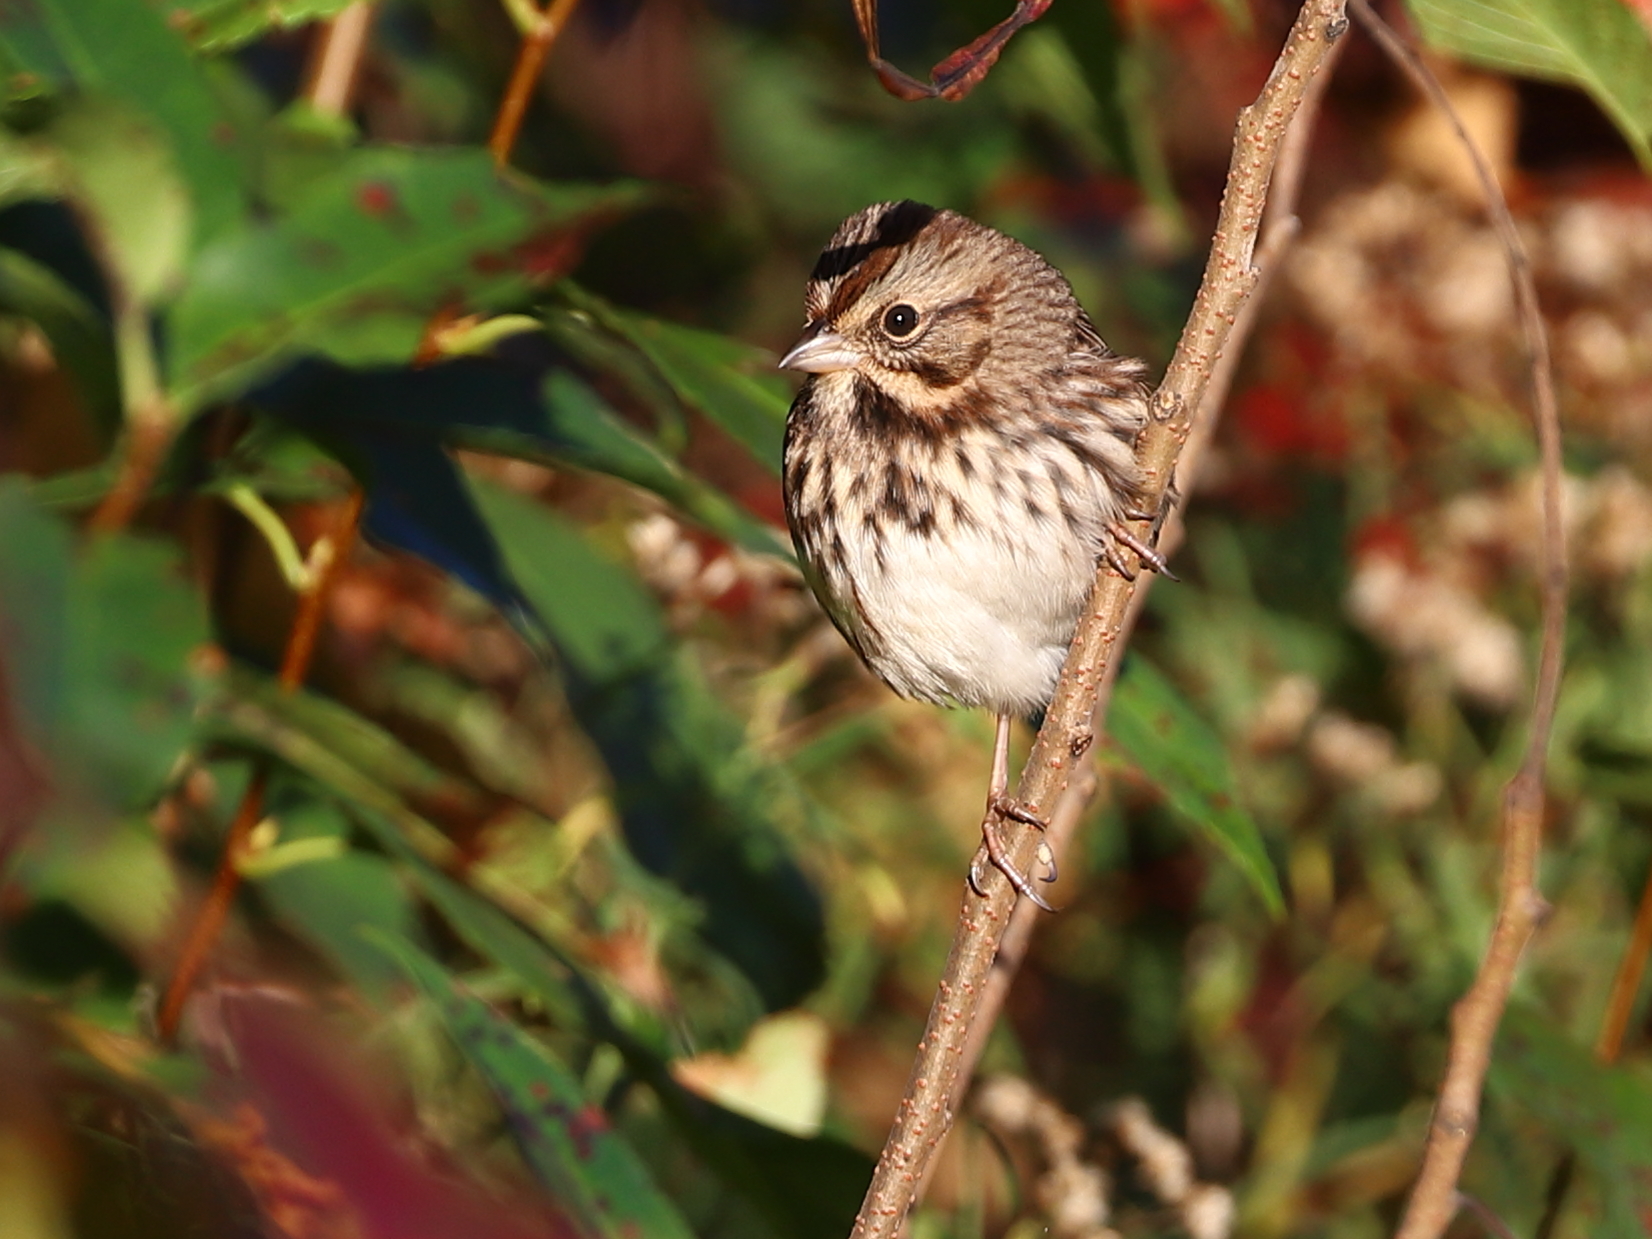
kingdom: Animalia
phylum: Chordata
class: Aves
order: Passeriformes
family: Passerellidae
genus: Melospiza
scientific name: Melospiza melodia
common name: Song sparrow
